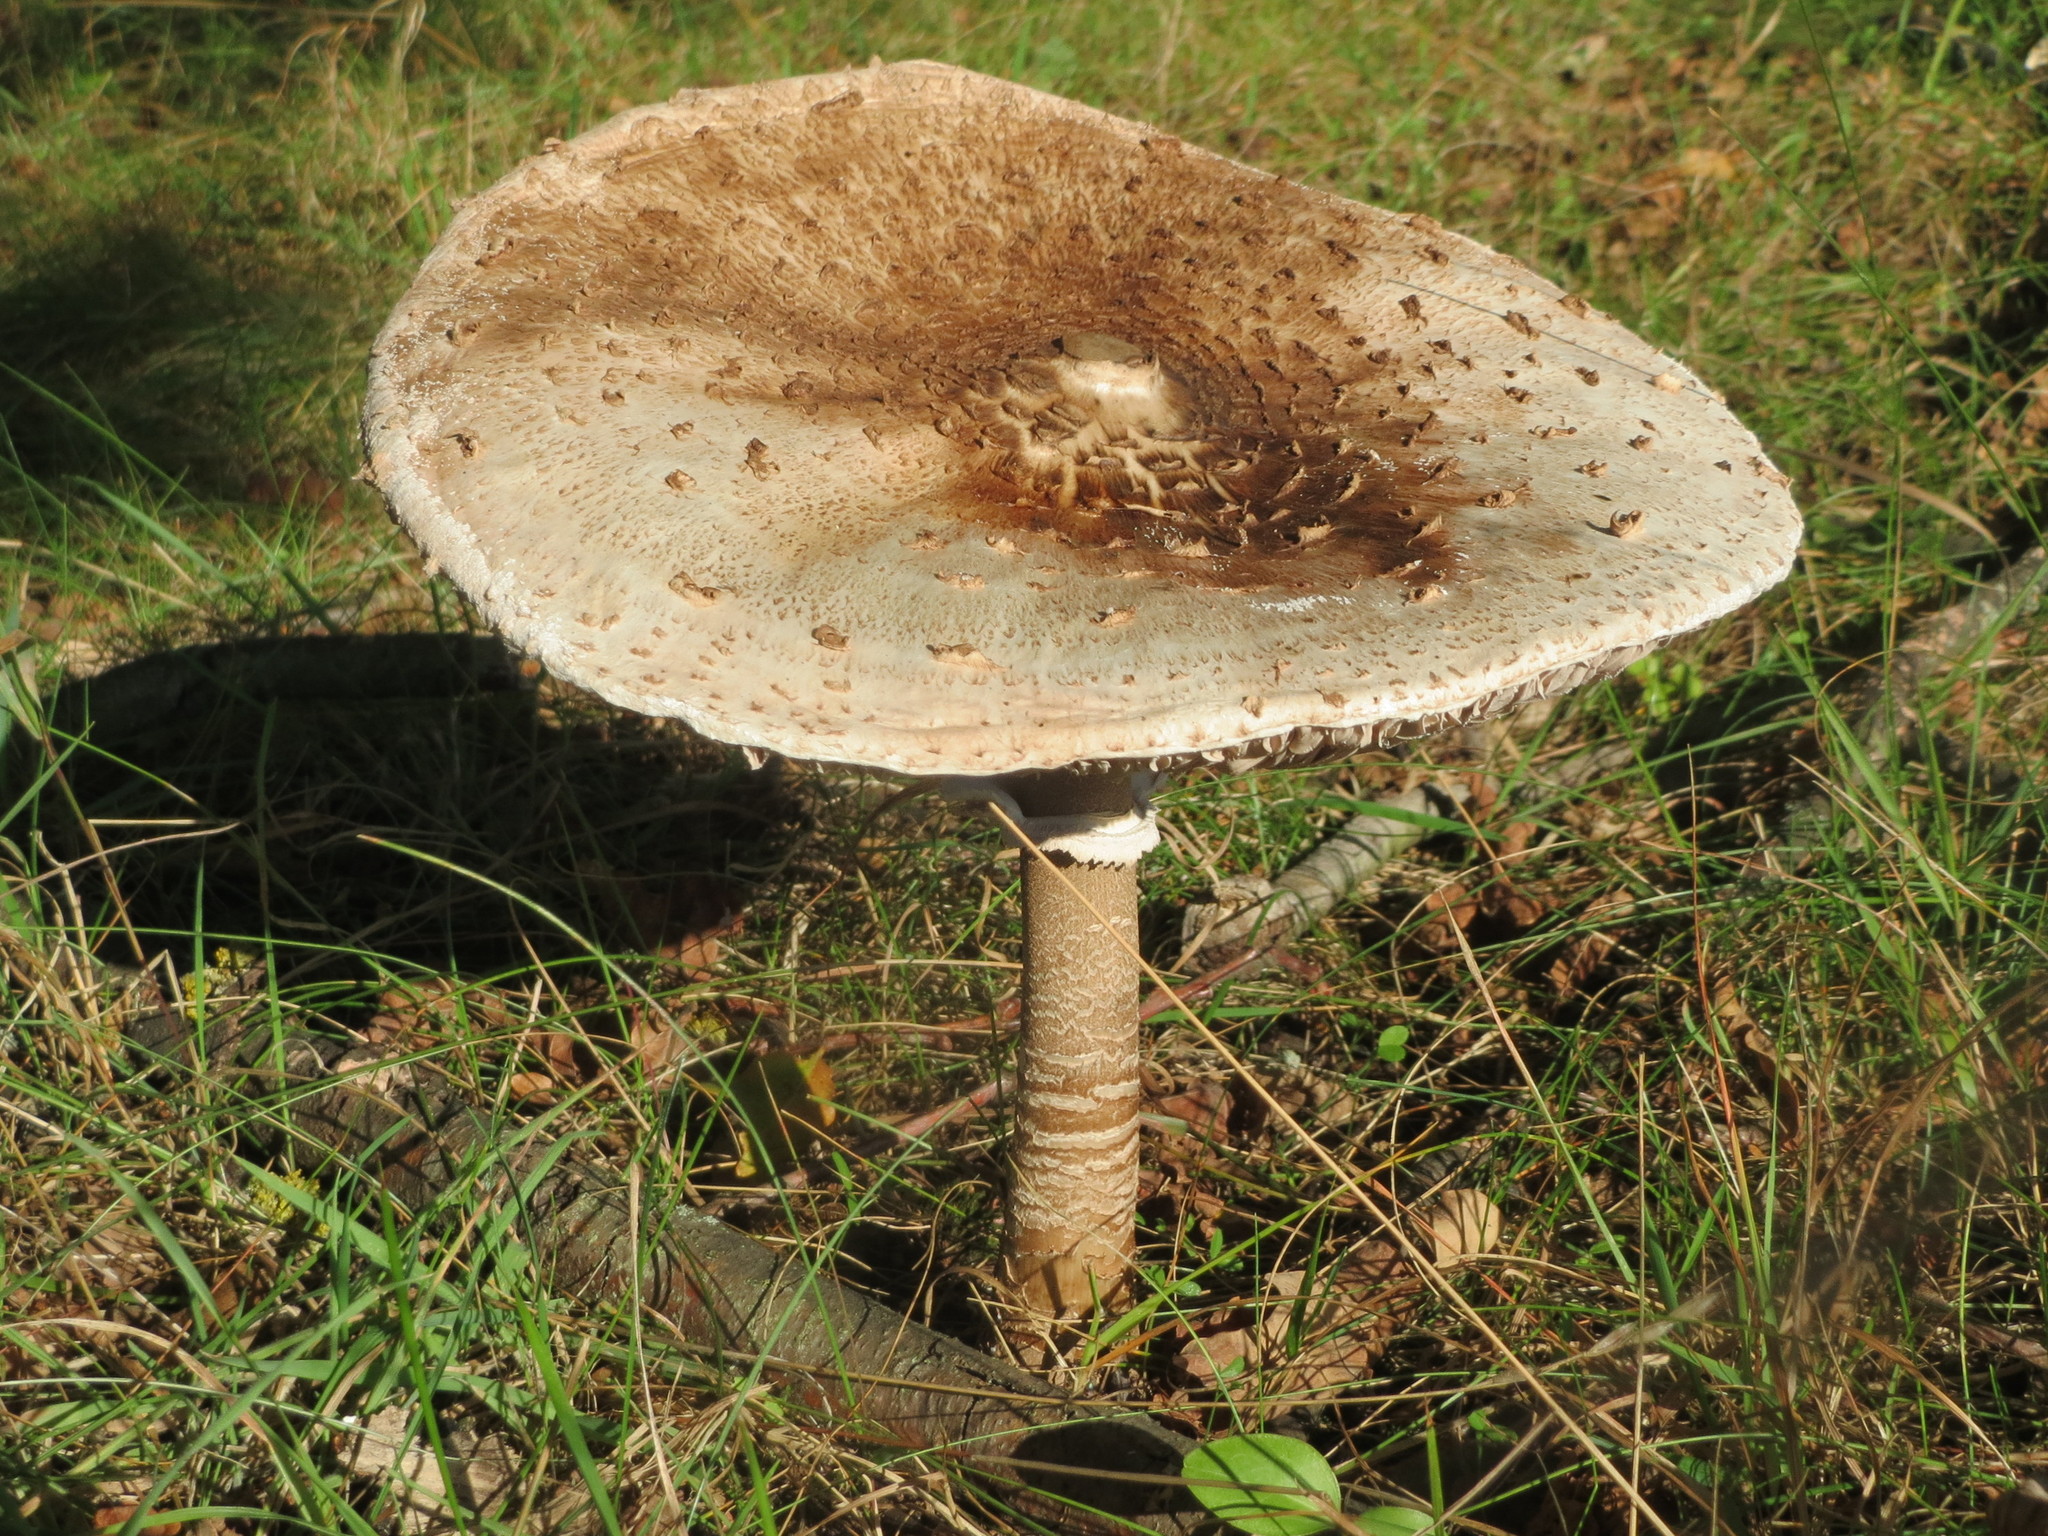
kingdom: Fungi
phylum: Basidiomycota
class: Agaricomycetes
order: Agaricales
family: Agaricaceae
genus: Macrolepiota
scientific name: Macrolepiota procera
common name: Parasol
